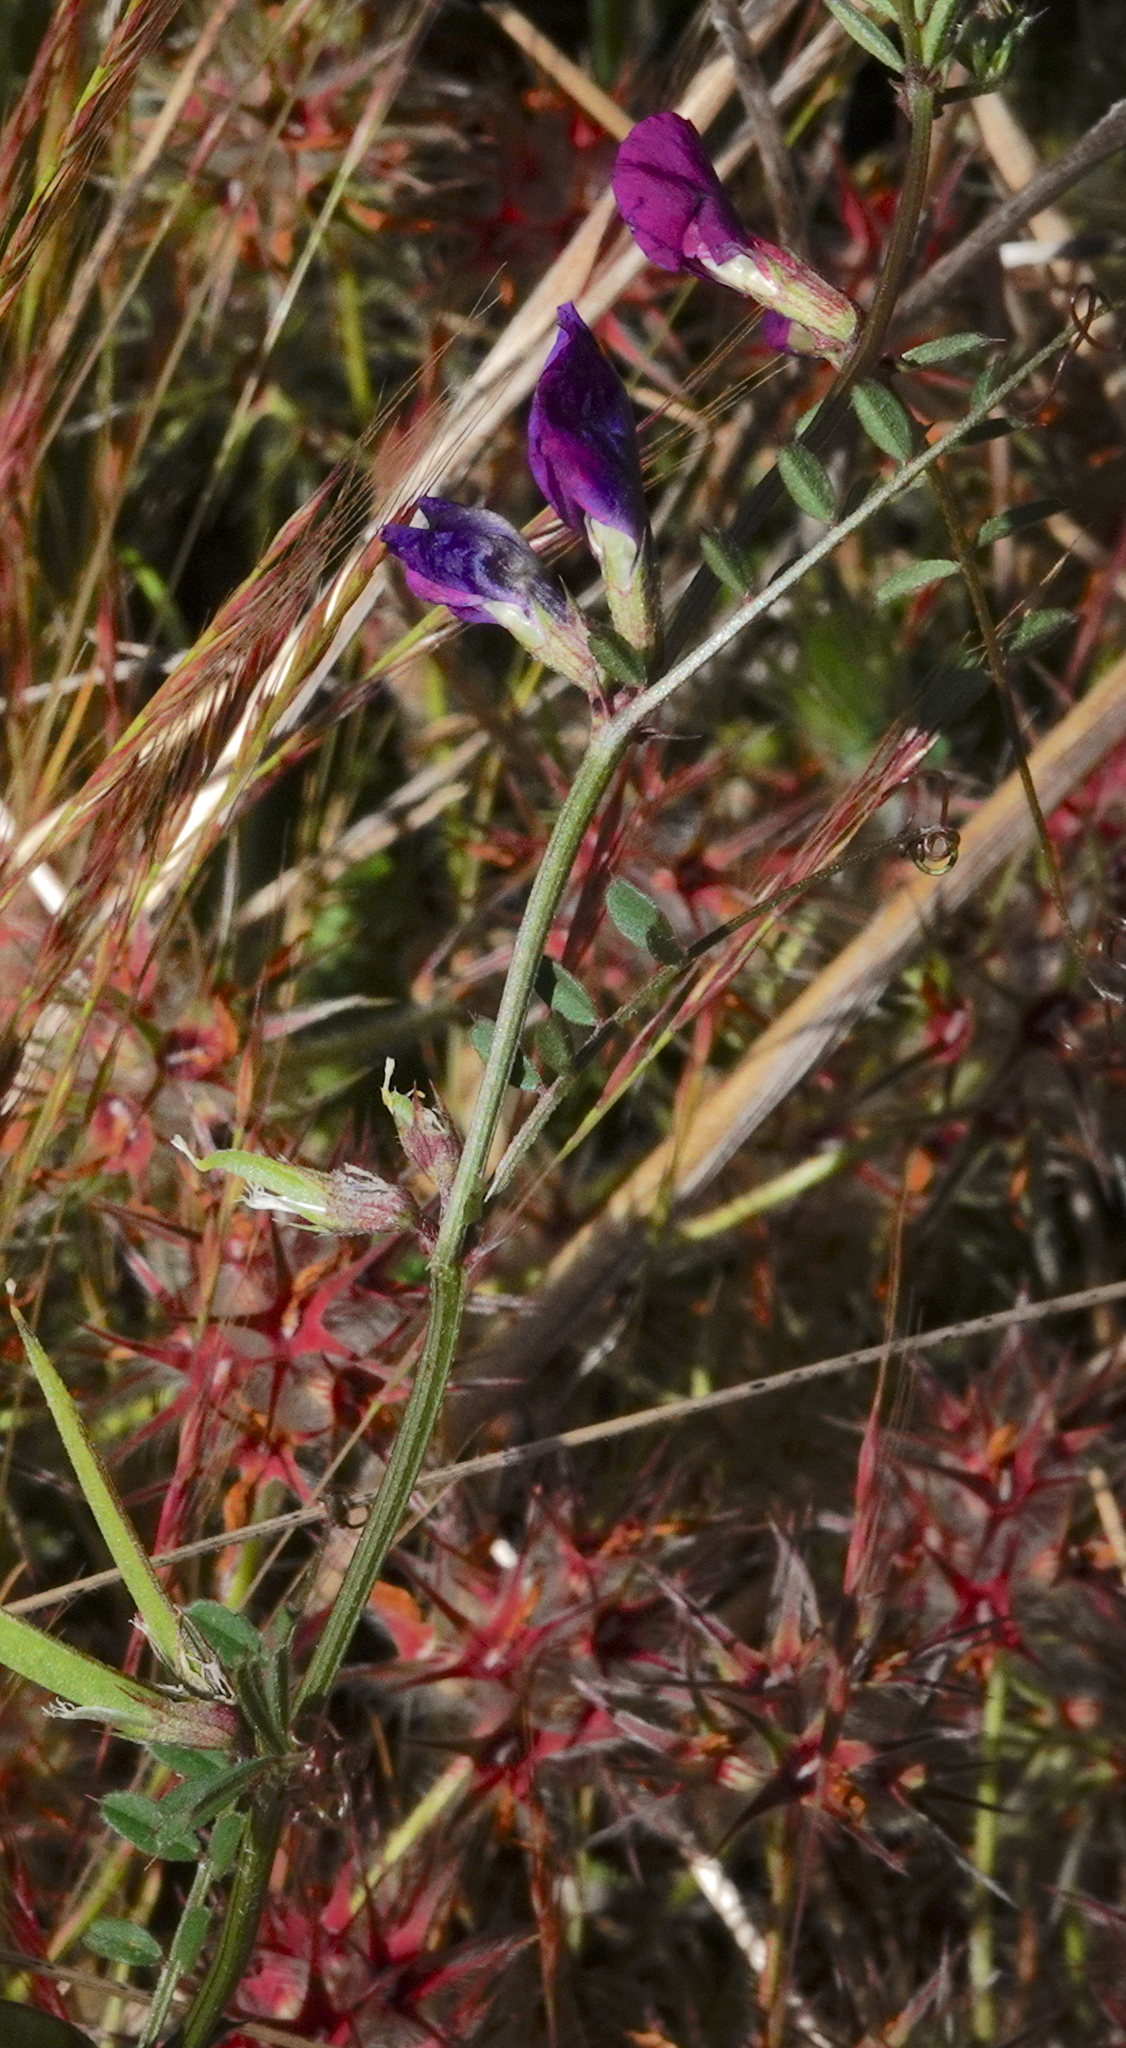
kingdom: Plantae
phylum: Tracheophyta
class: Magnoliopsida
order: Fabales
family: Fabaceae
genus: Vicia
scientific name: Vicia sativa
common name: Garden vetch
